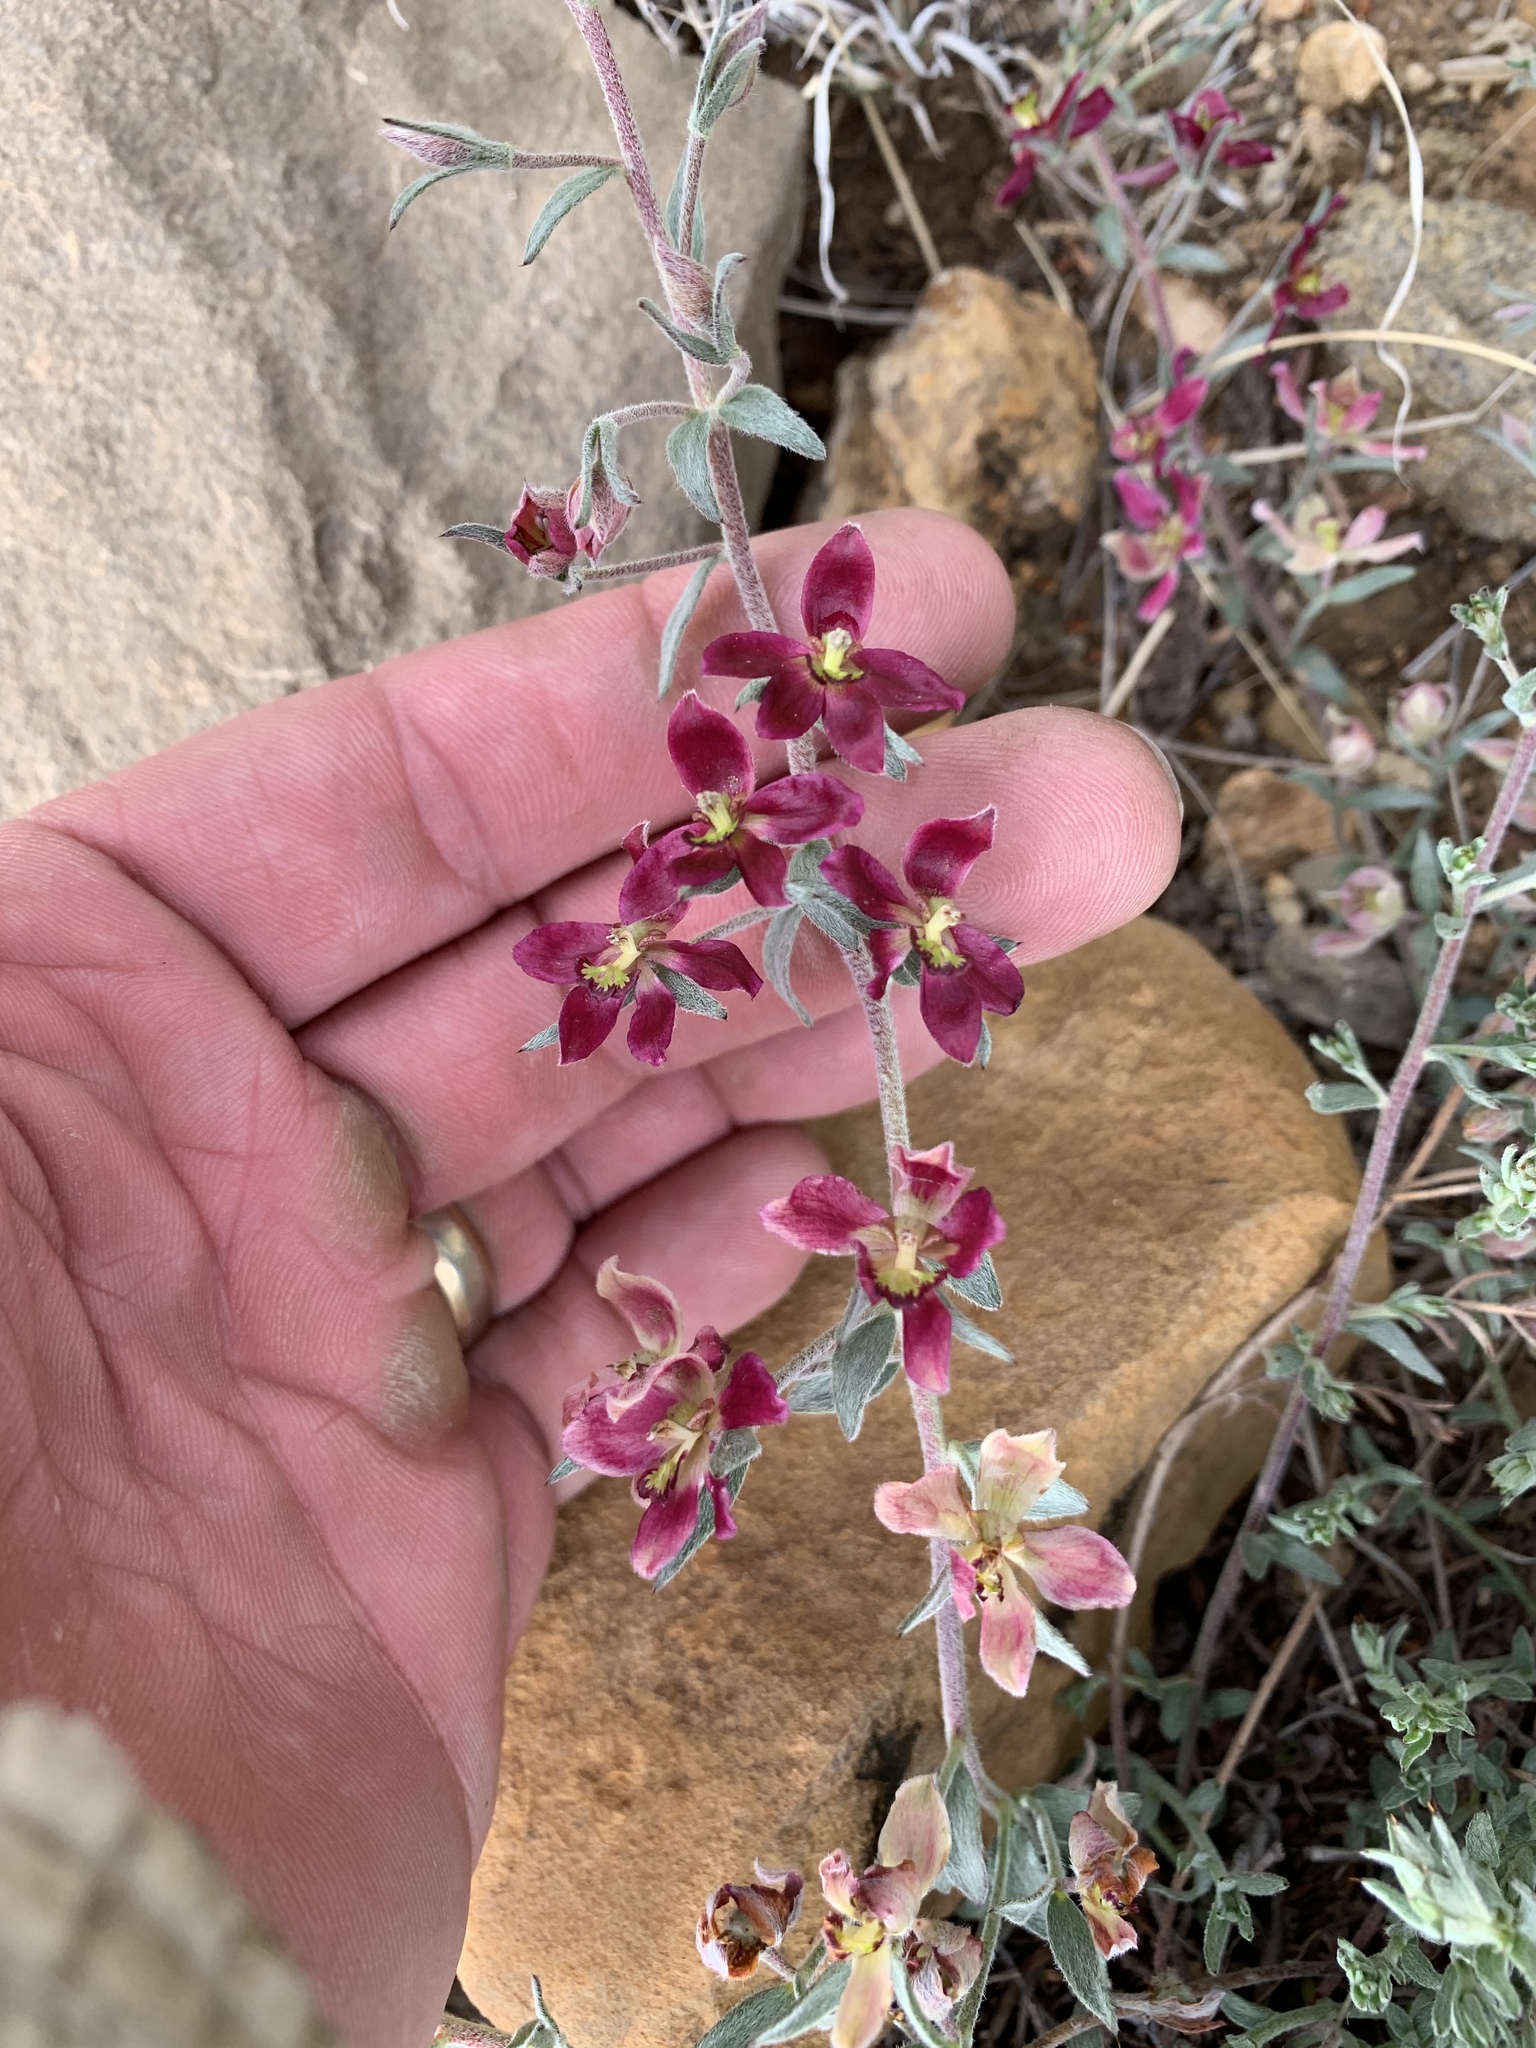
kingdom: Plantae
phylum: Tracheophyta
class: Magnoliopsida
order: Zygophyllales
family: Krameriaceae
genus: Krameria
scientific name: Krameria lanceolata
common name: Ratany
